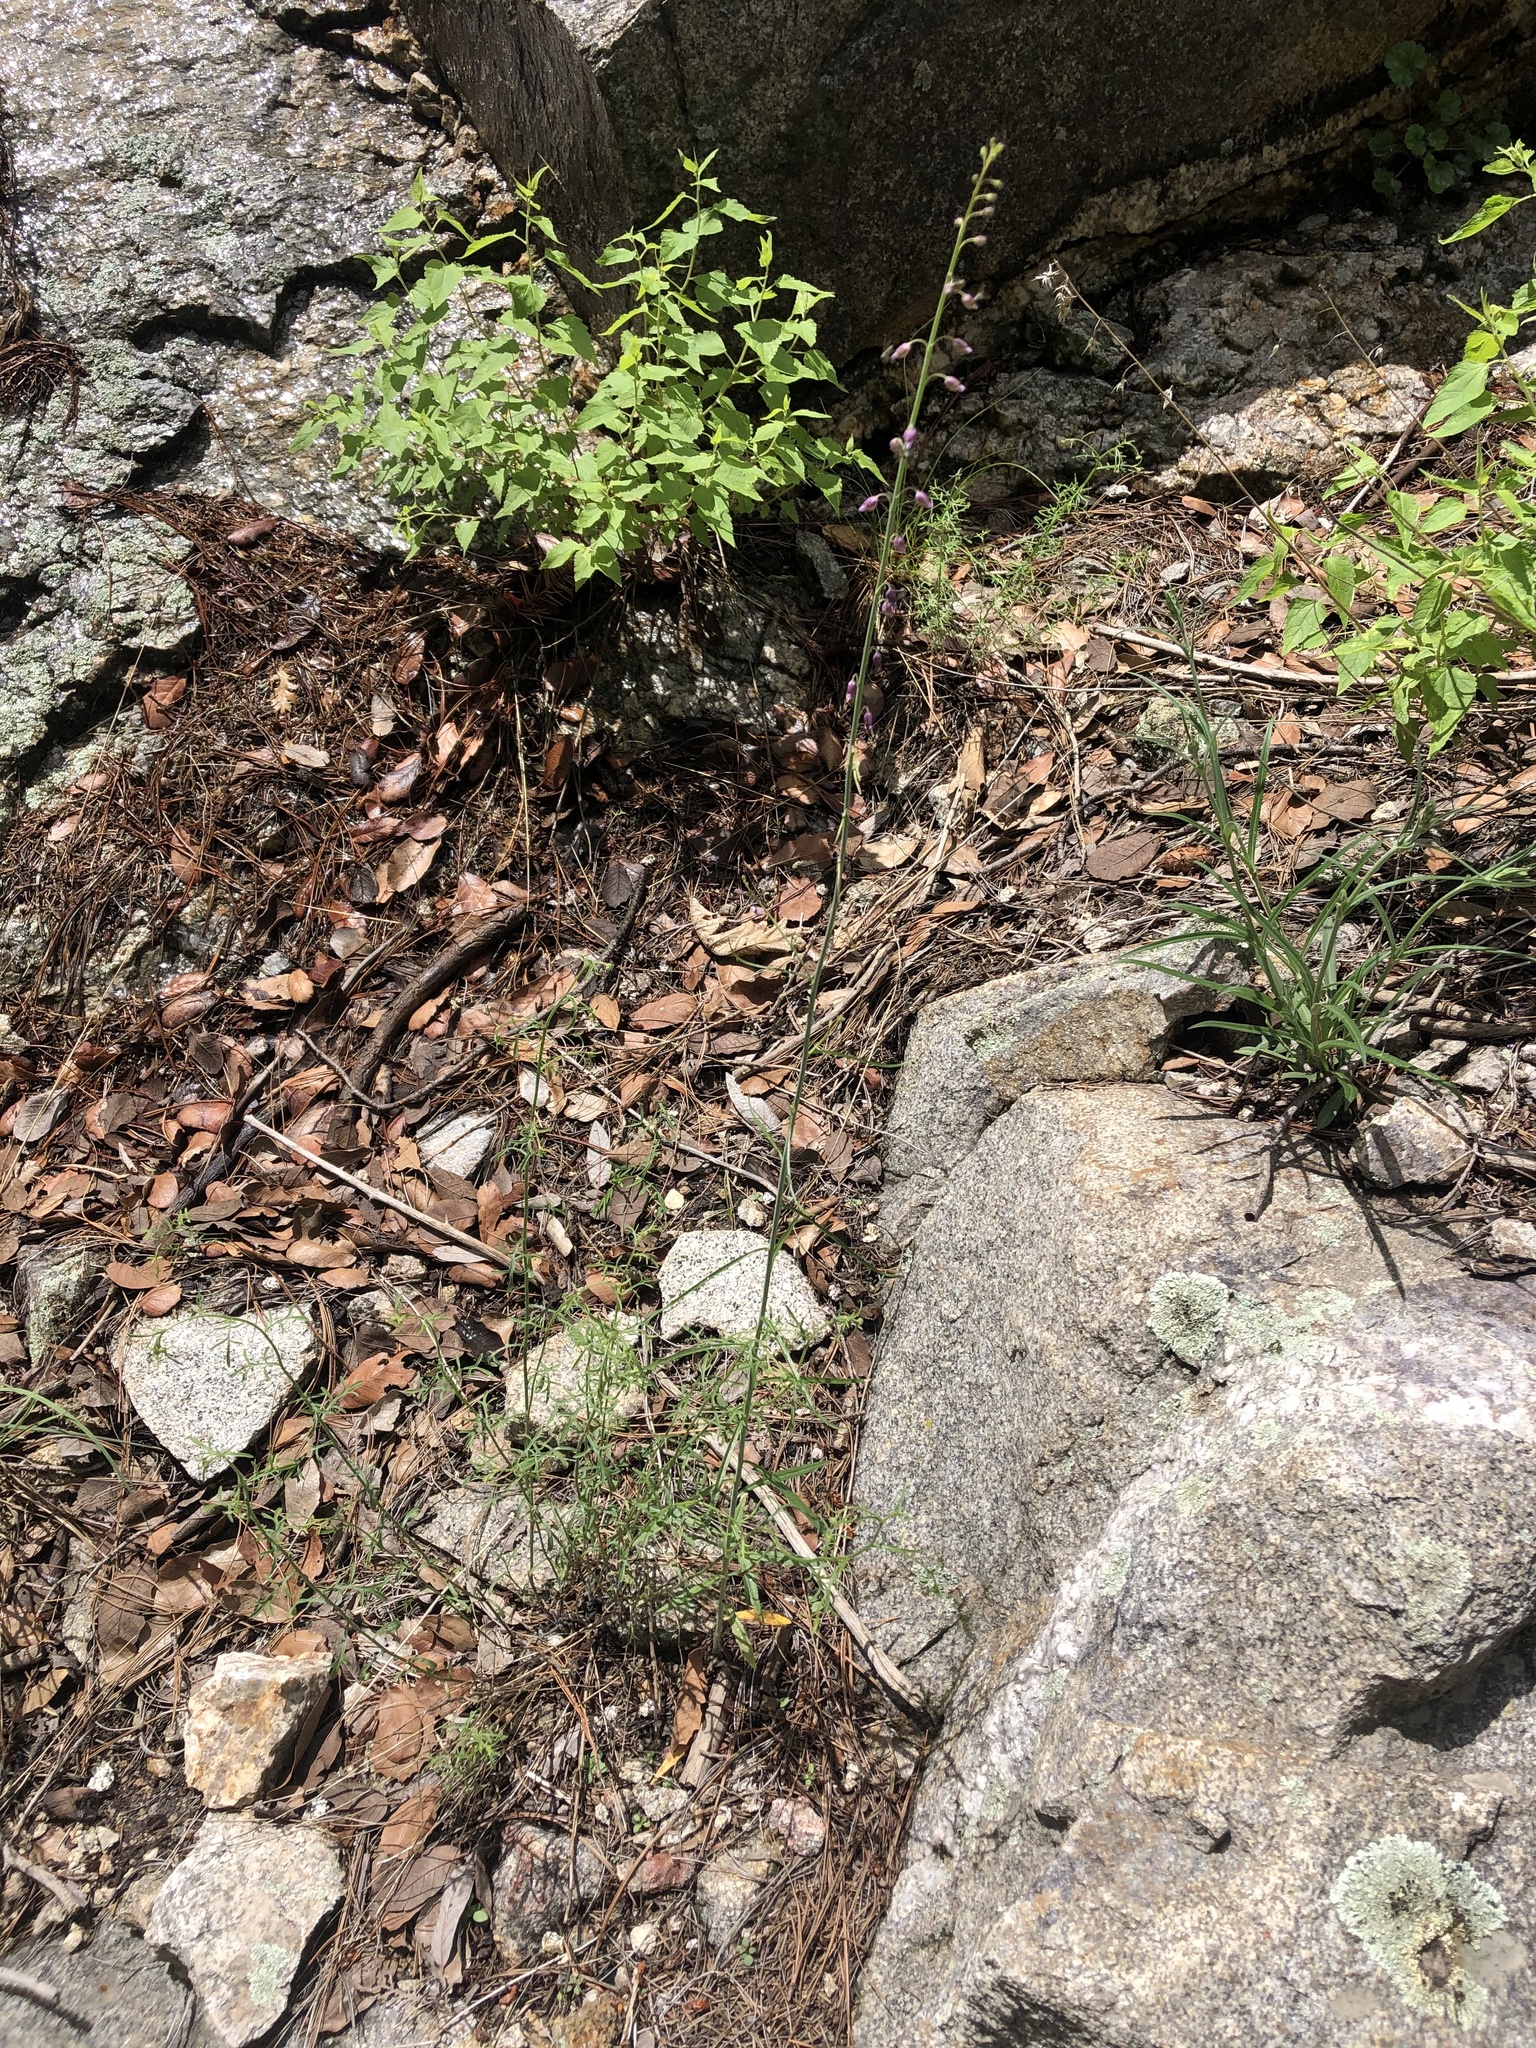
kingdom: Plantae
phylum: Tracheophyta
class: Magnoliopsida
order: Brassicales
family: Brassicaceae
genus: Pennellia
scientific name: Pennellia longifolia
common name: Longleaf mock thelypody
